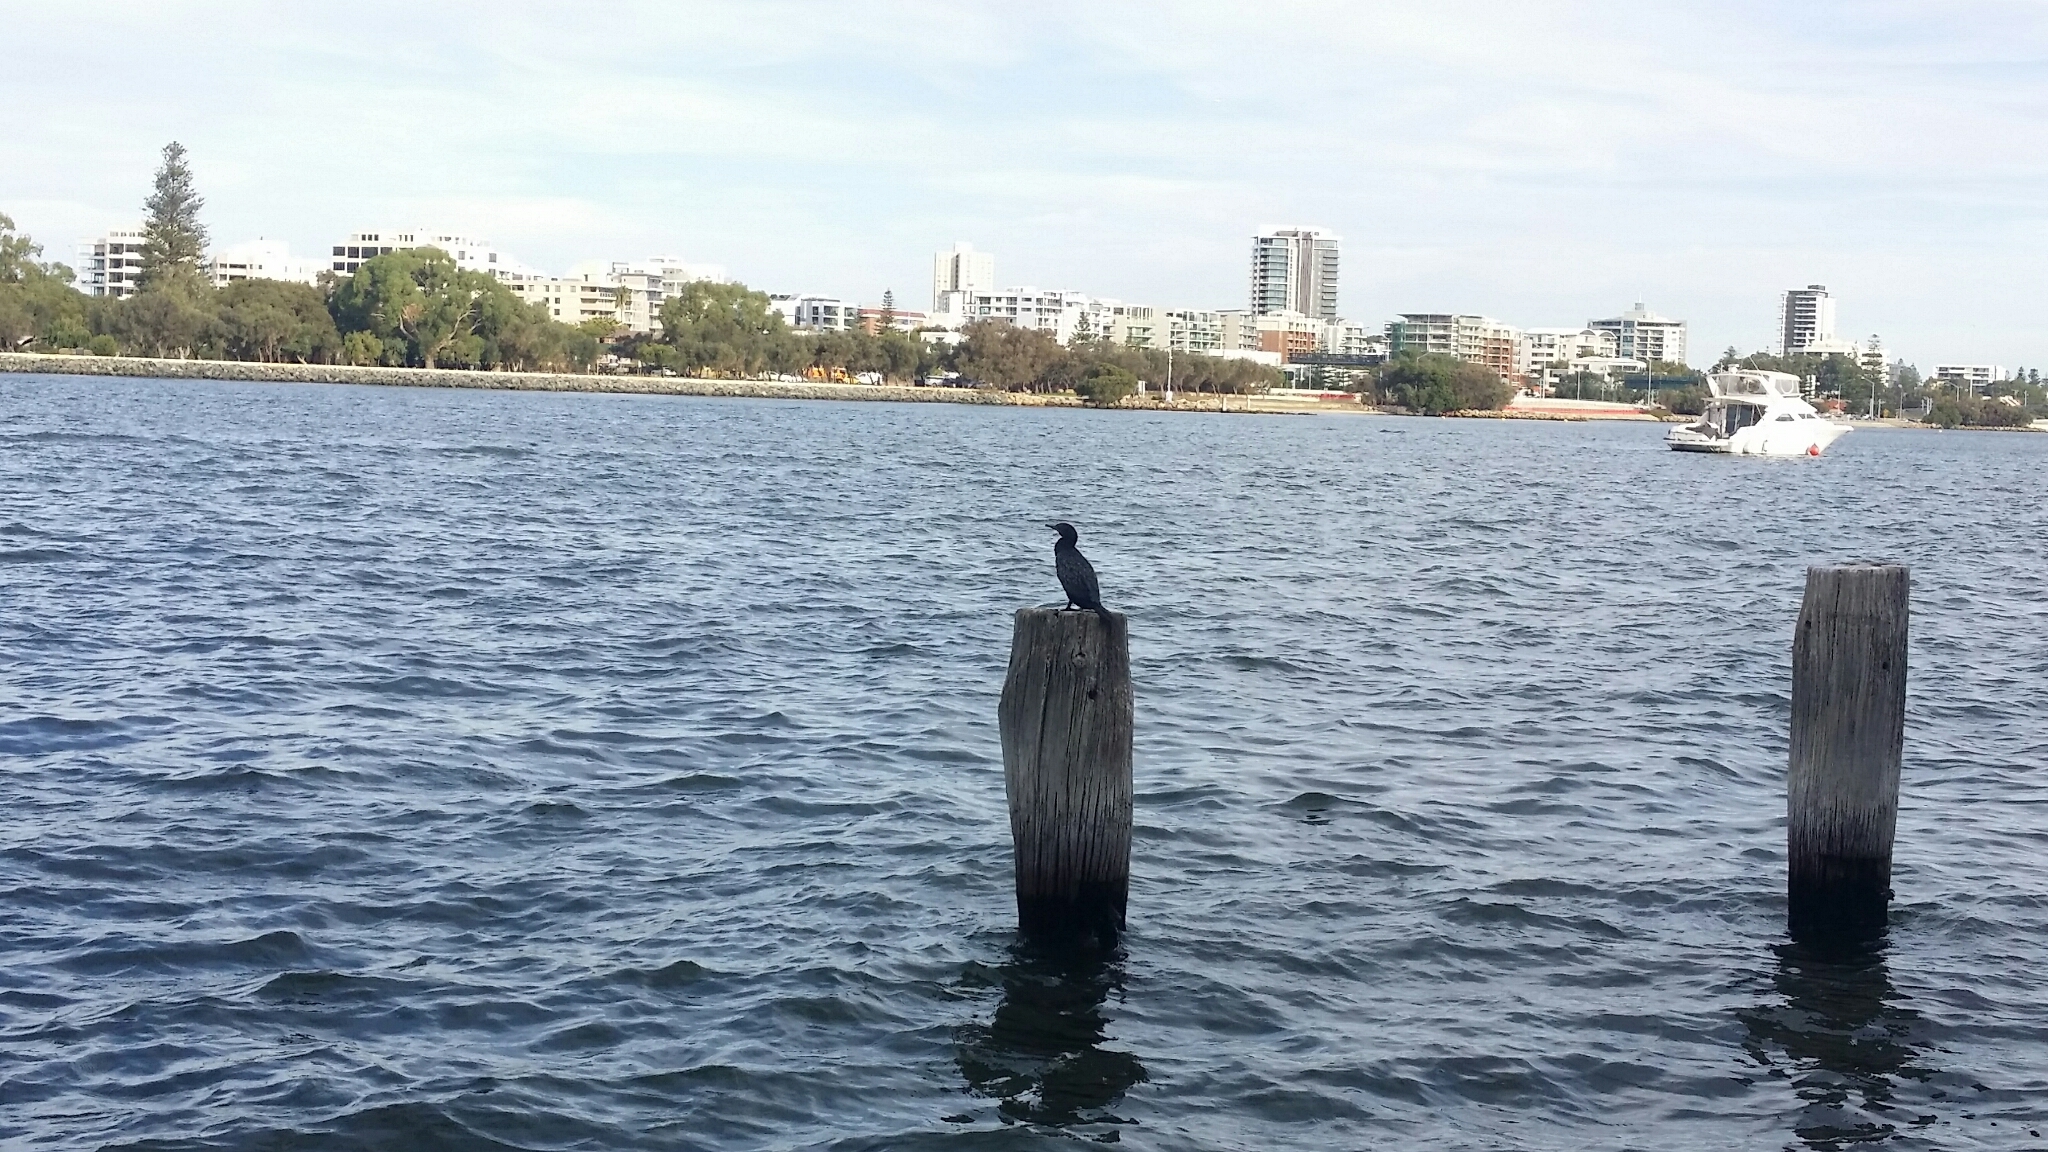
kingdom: Animalia
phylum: Chordata
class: Aves
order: Suliformes
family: Phalacrocoracidae
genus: Phalacrocorax
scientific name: Phalacrocorax sulcirostris
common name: Little black cormorant
